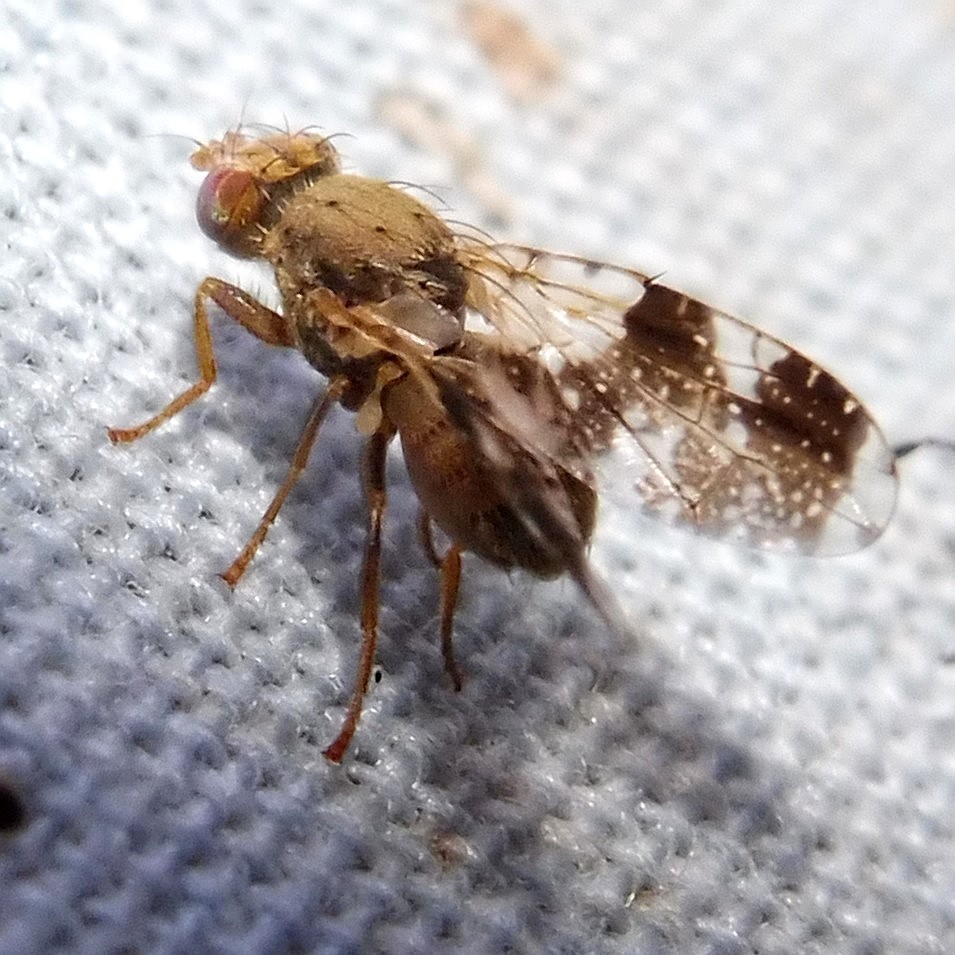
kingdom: Animalia
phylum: Arthropoda
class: Insecta
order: Diptera
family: Tephritidae
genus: Tephritis
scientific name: Tephritis formosa
